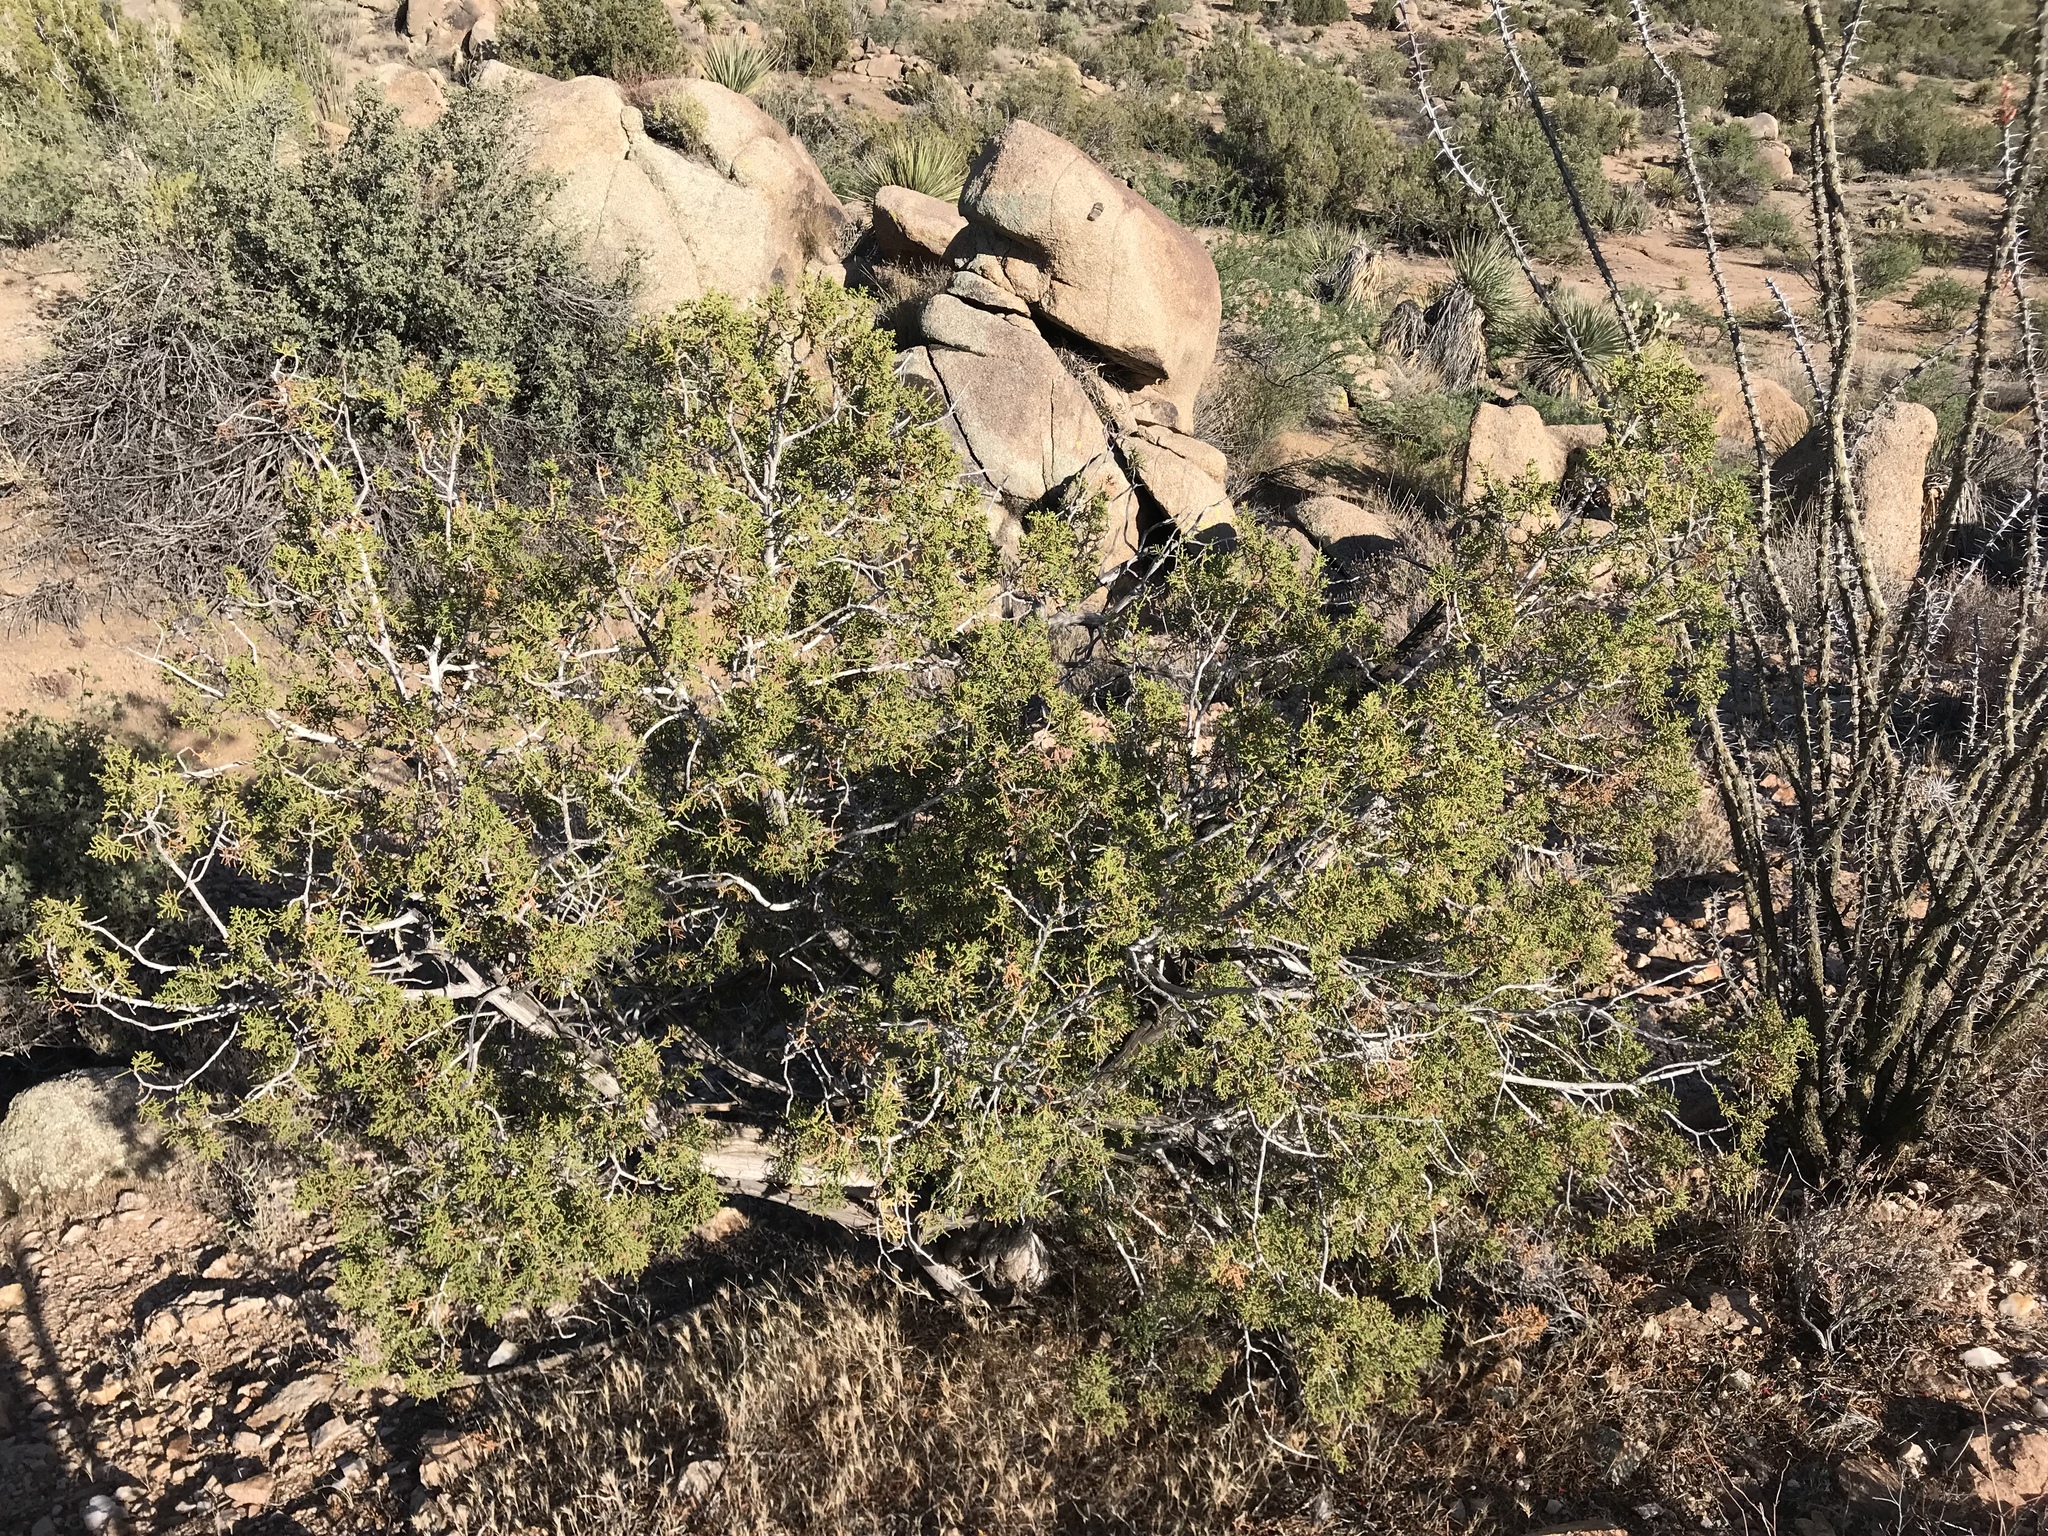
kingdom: Plantae
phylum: Tracheophyta
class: Pinopsida
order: Pinales
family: Cupressaceae
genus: Juniperus
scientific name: Juniperus californica
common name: California juniper
